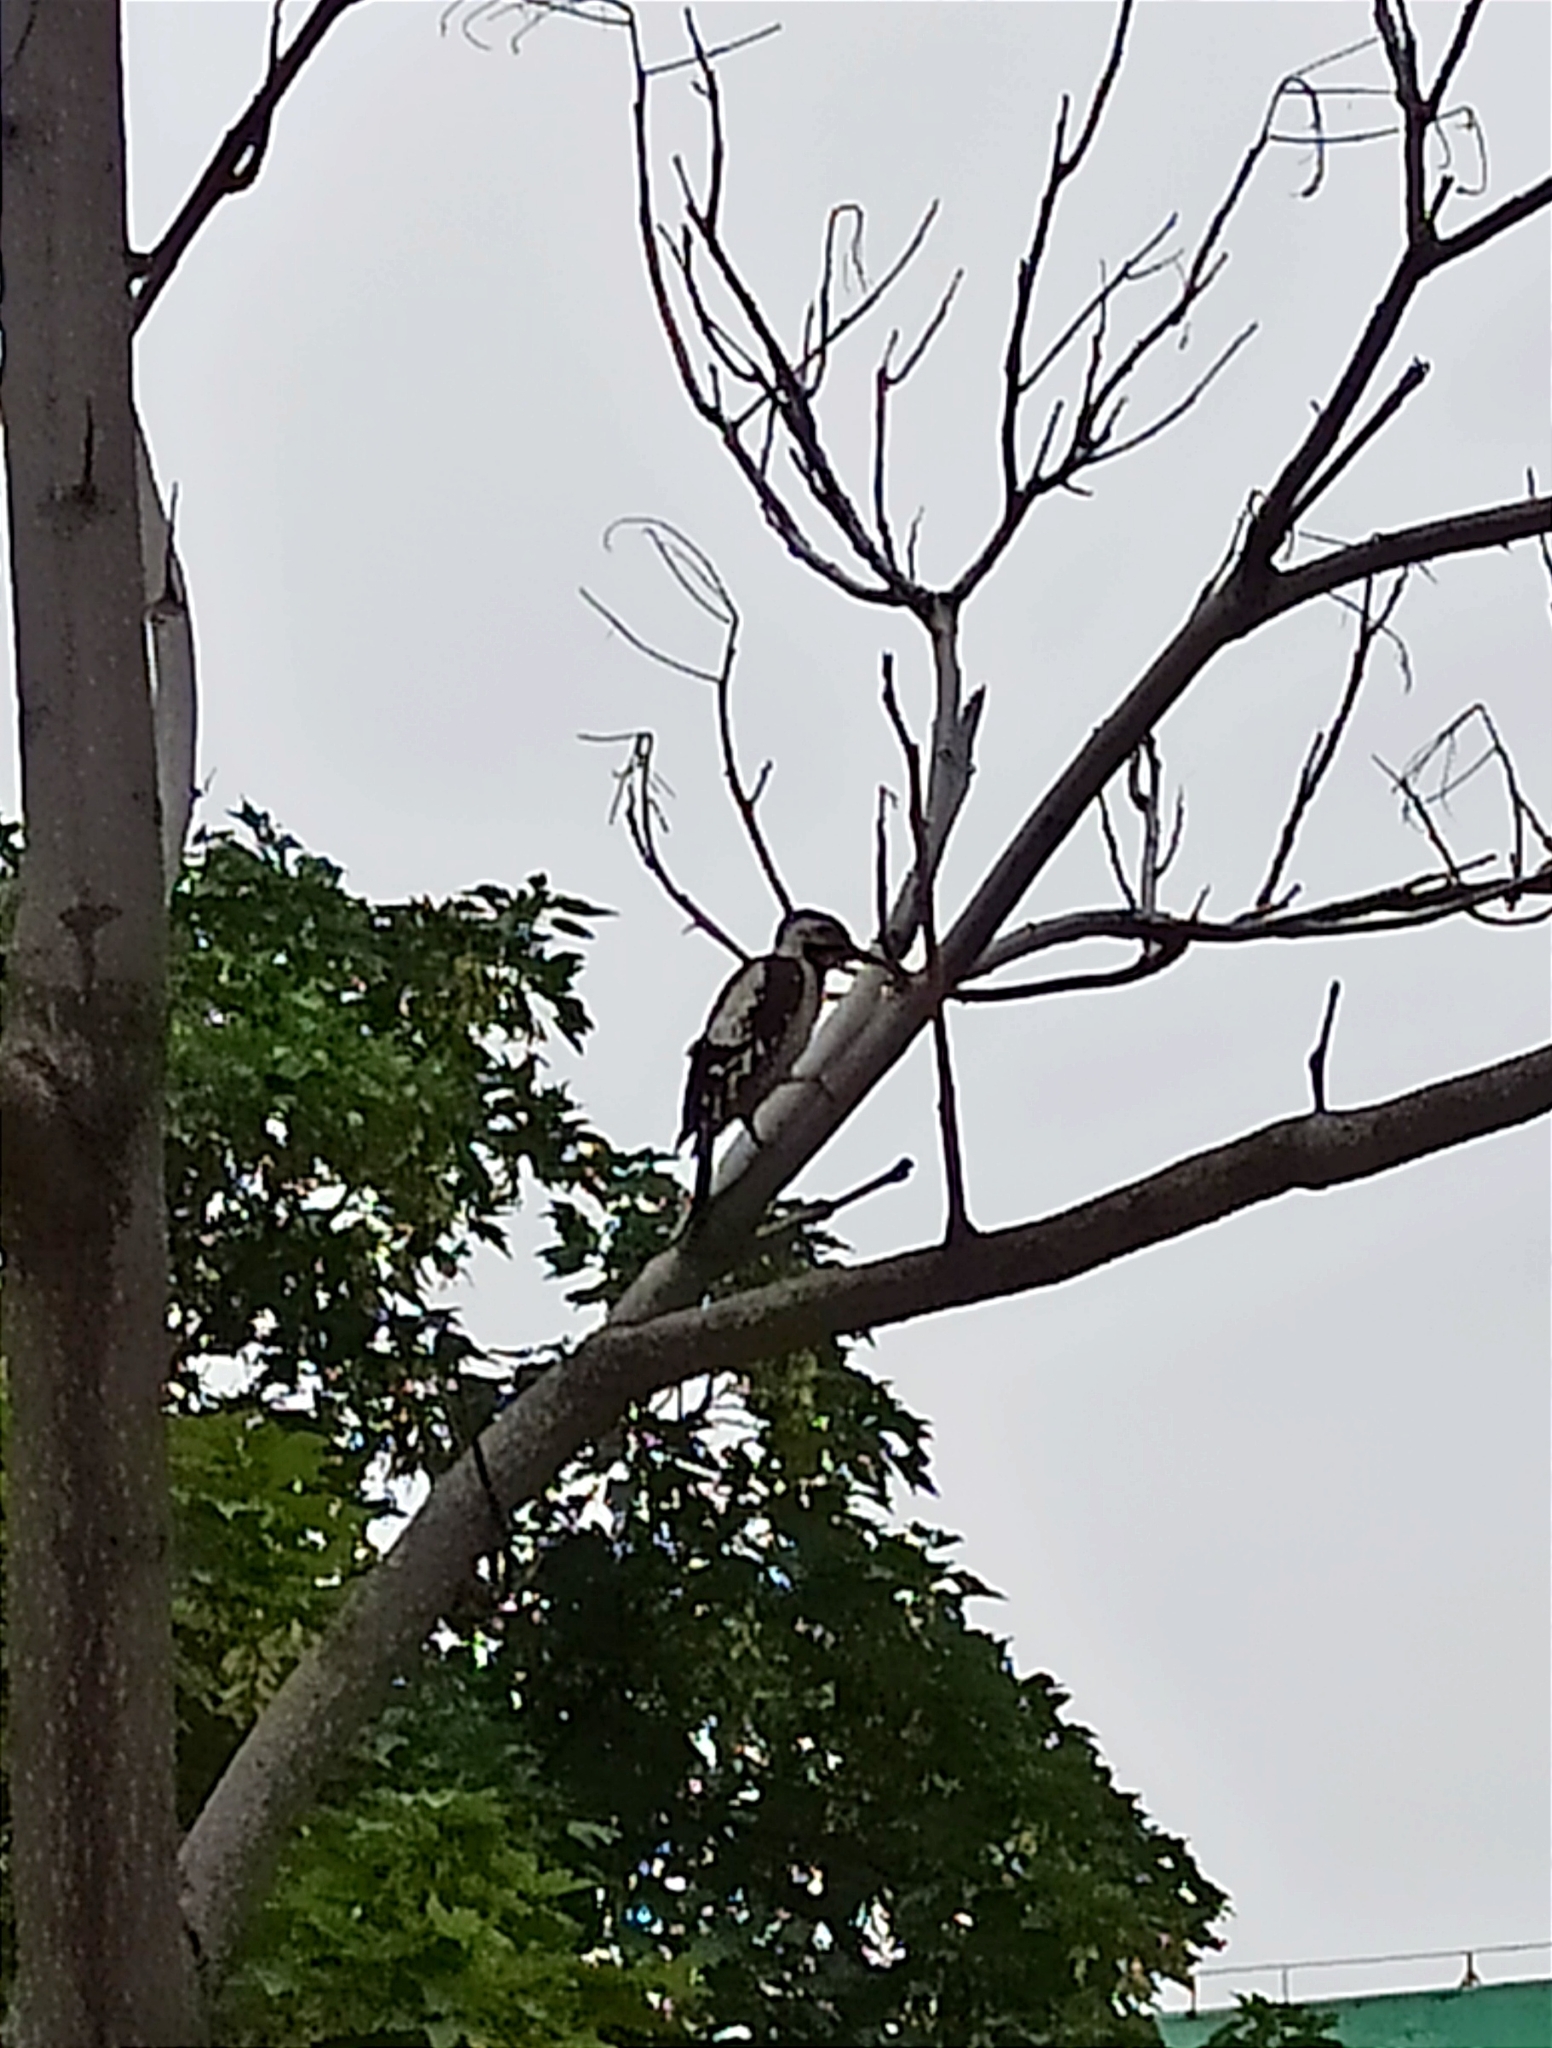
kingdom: Animalia
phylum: Chordata
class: Aves
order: Piciformes
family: Picidae
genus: Dendrocopos
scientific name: Dendrocopos syriacus
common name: Syrian woodpecker
